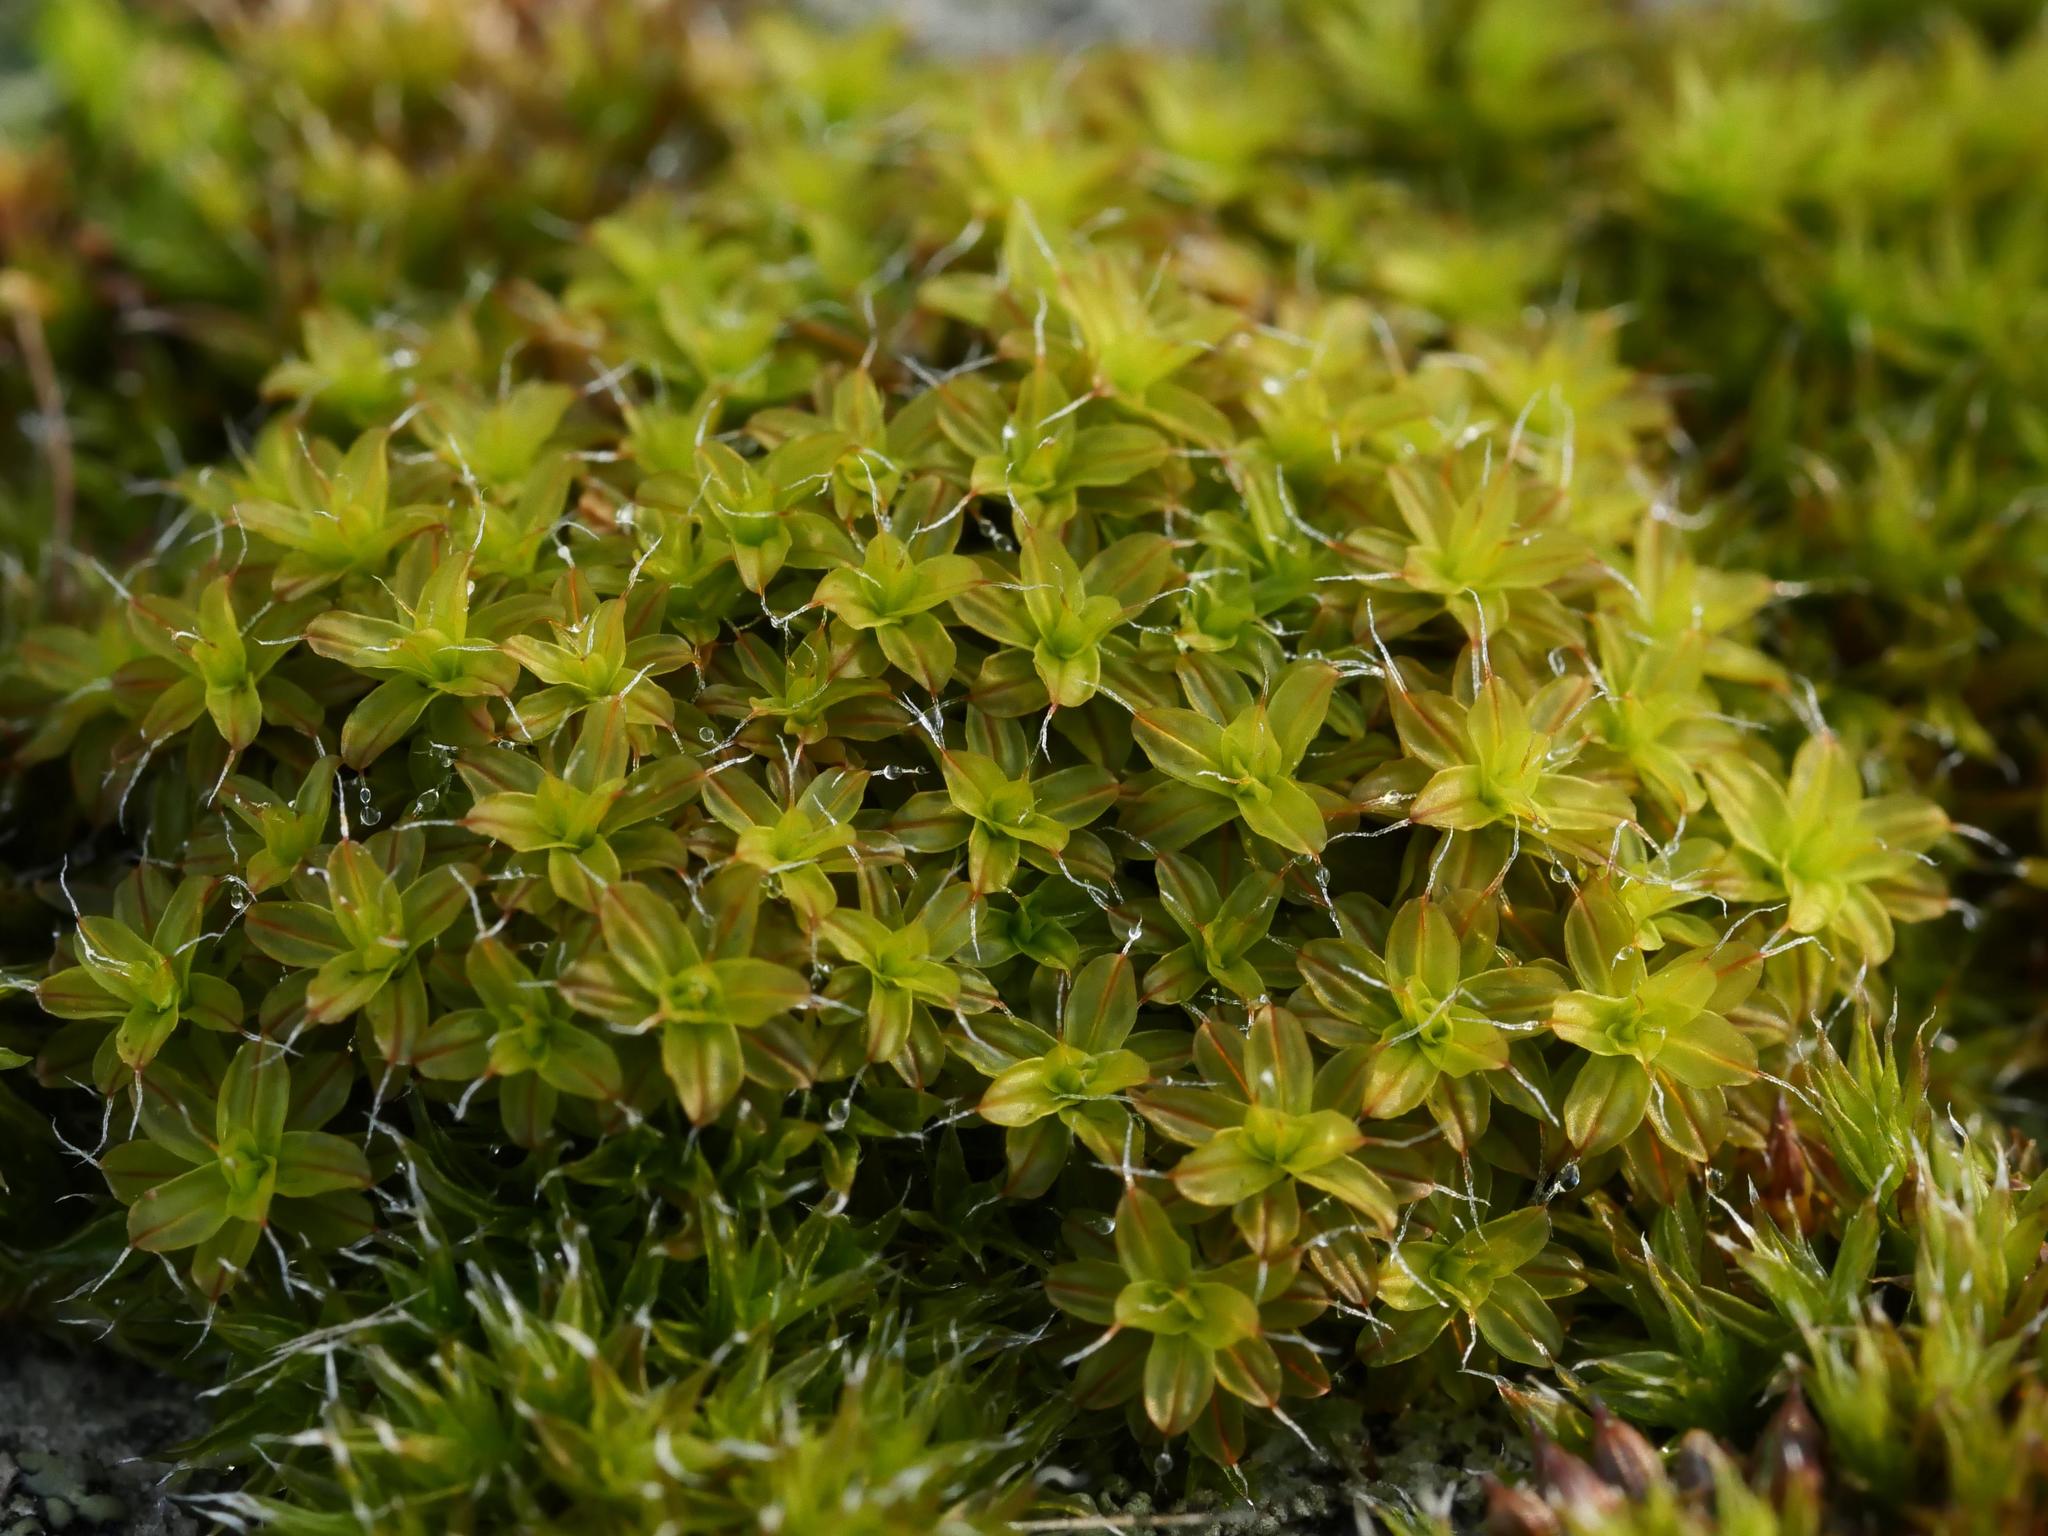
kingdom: Plantae
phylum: Bryophyta
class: Bryopsida
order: Pottiales
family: Pottiaceae
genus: Syntrichia
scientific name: Syntrichia ruralis
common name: Sidewalk screw moss
